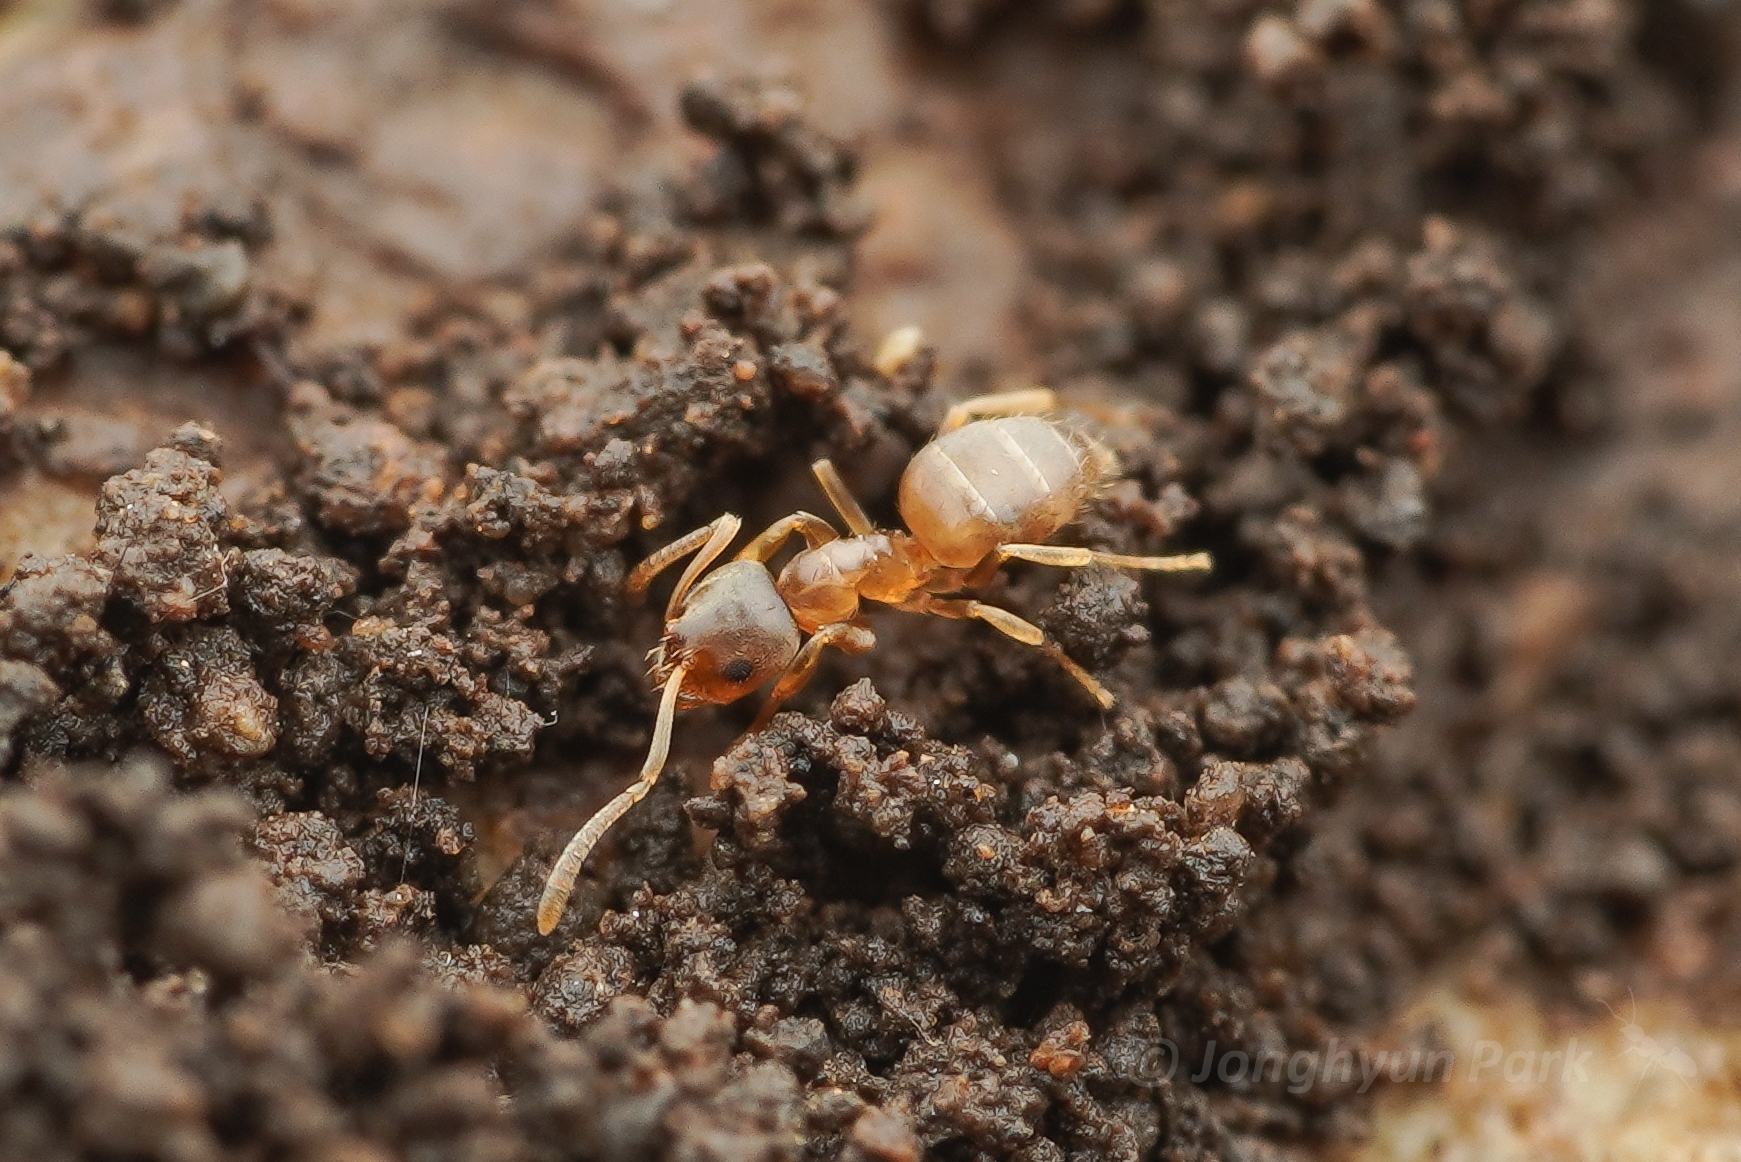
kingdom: Animalia
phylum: Arthropoda
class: Insecta
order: Hymenoptera
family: Formicidae
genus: Paraparatrechina
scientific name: Paraparatrechina
